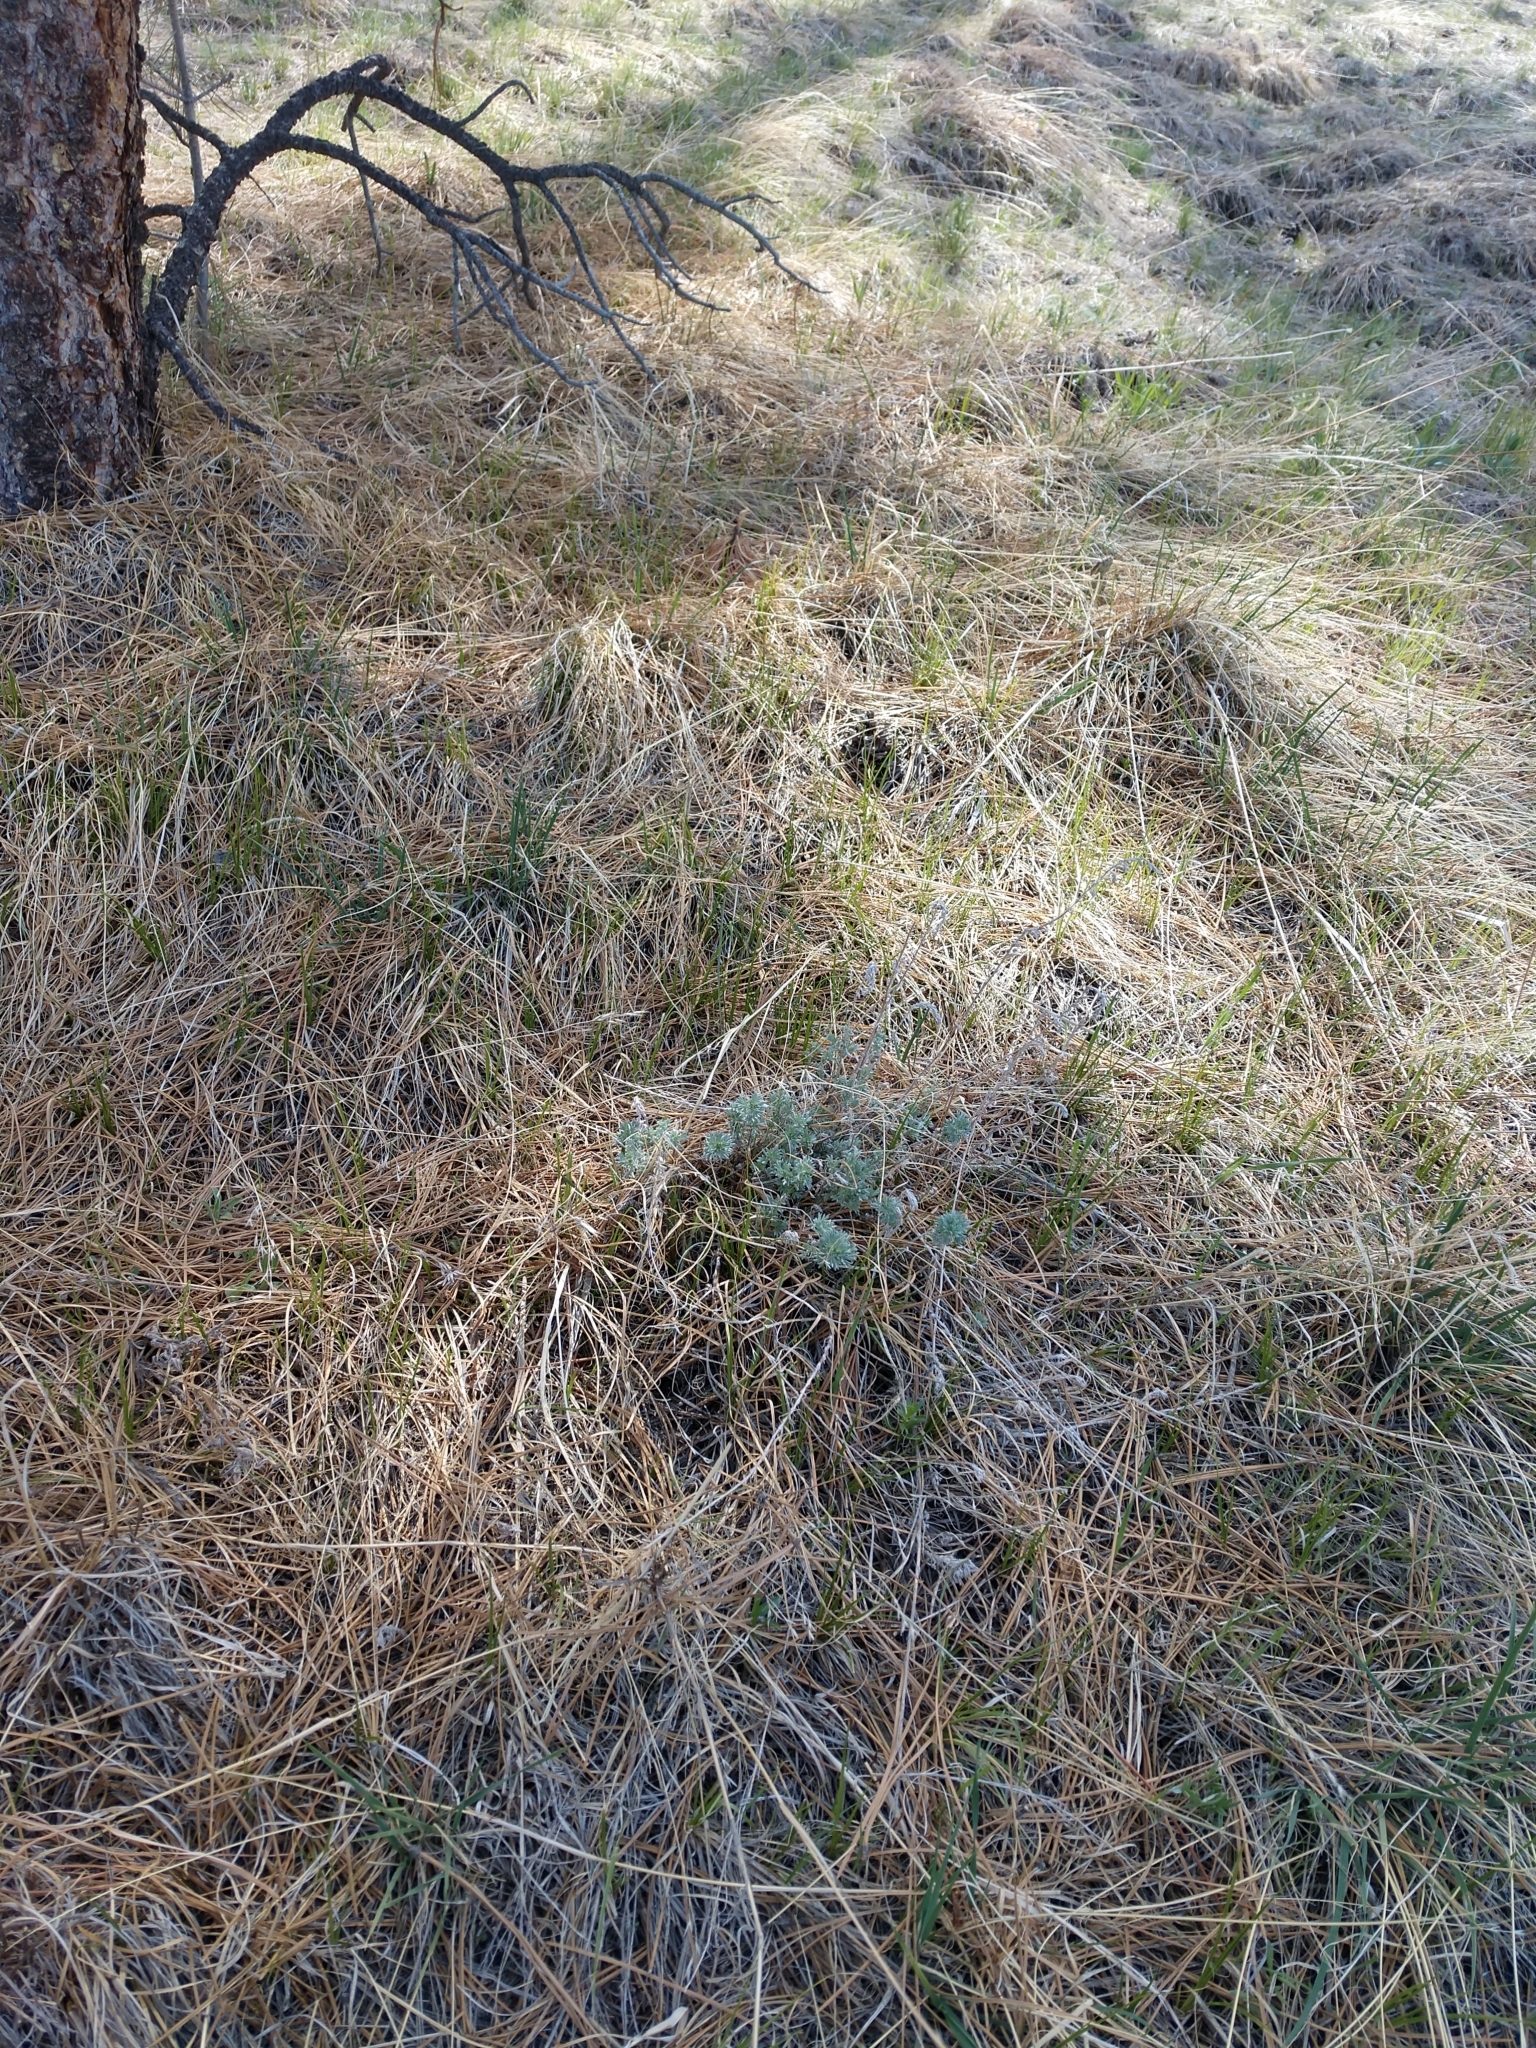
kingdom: Plantae
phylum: Tracheophyta
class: Magnoliopsida
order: Asterales
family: Asteraceae
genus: Artemisia
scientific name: Artemisia frigida
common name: Prairie sagewort
